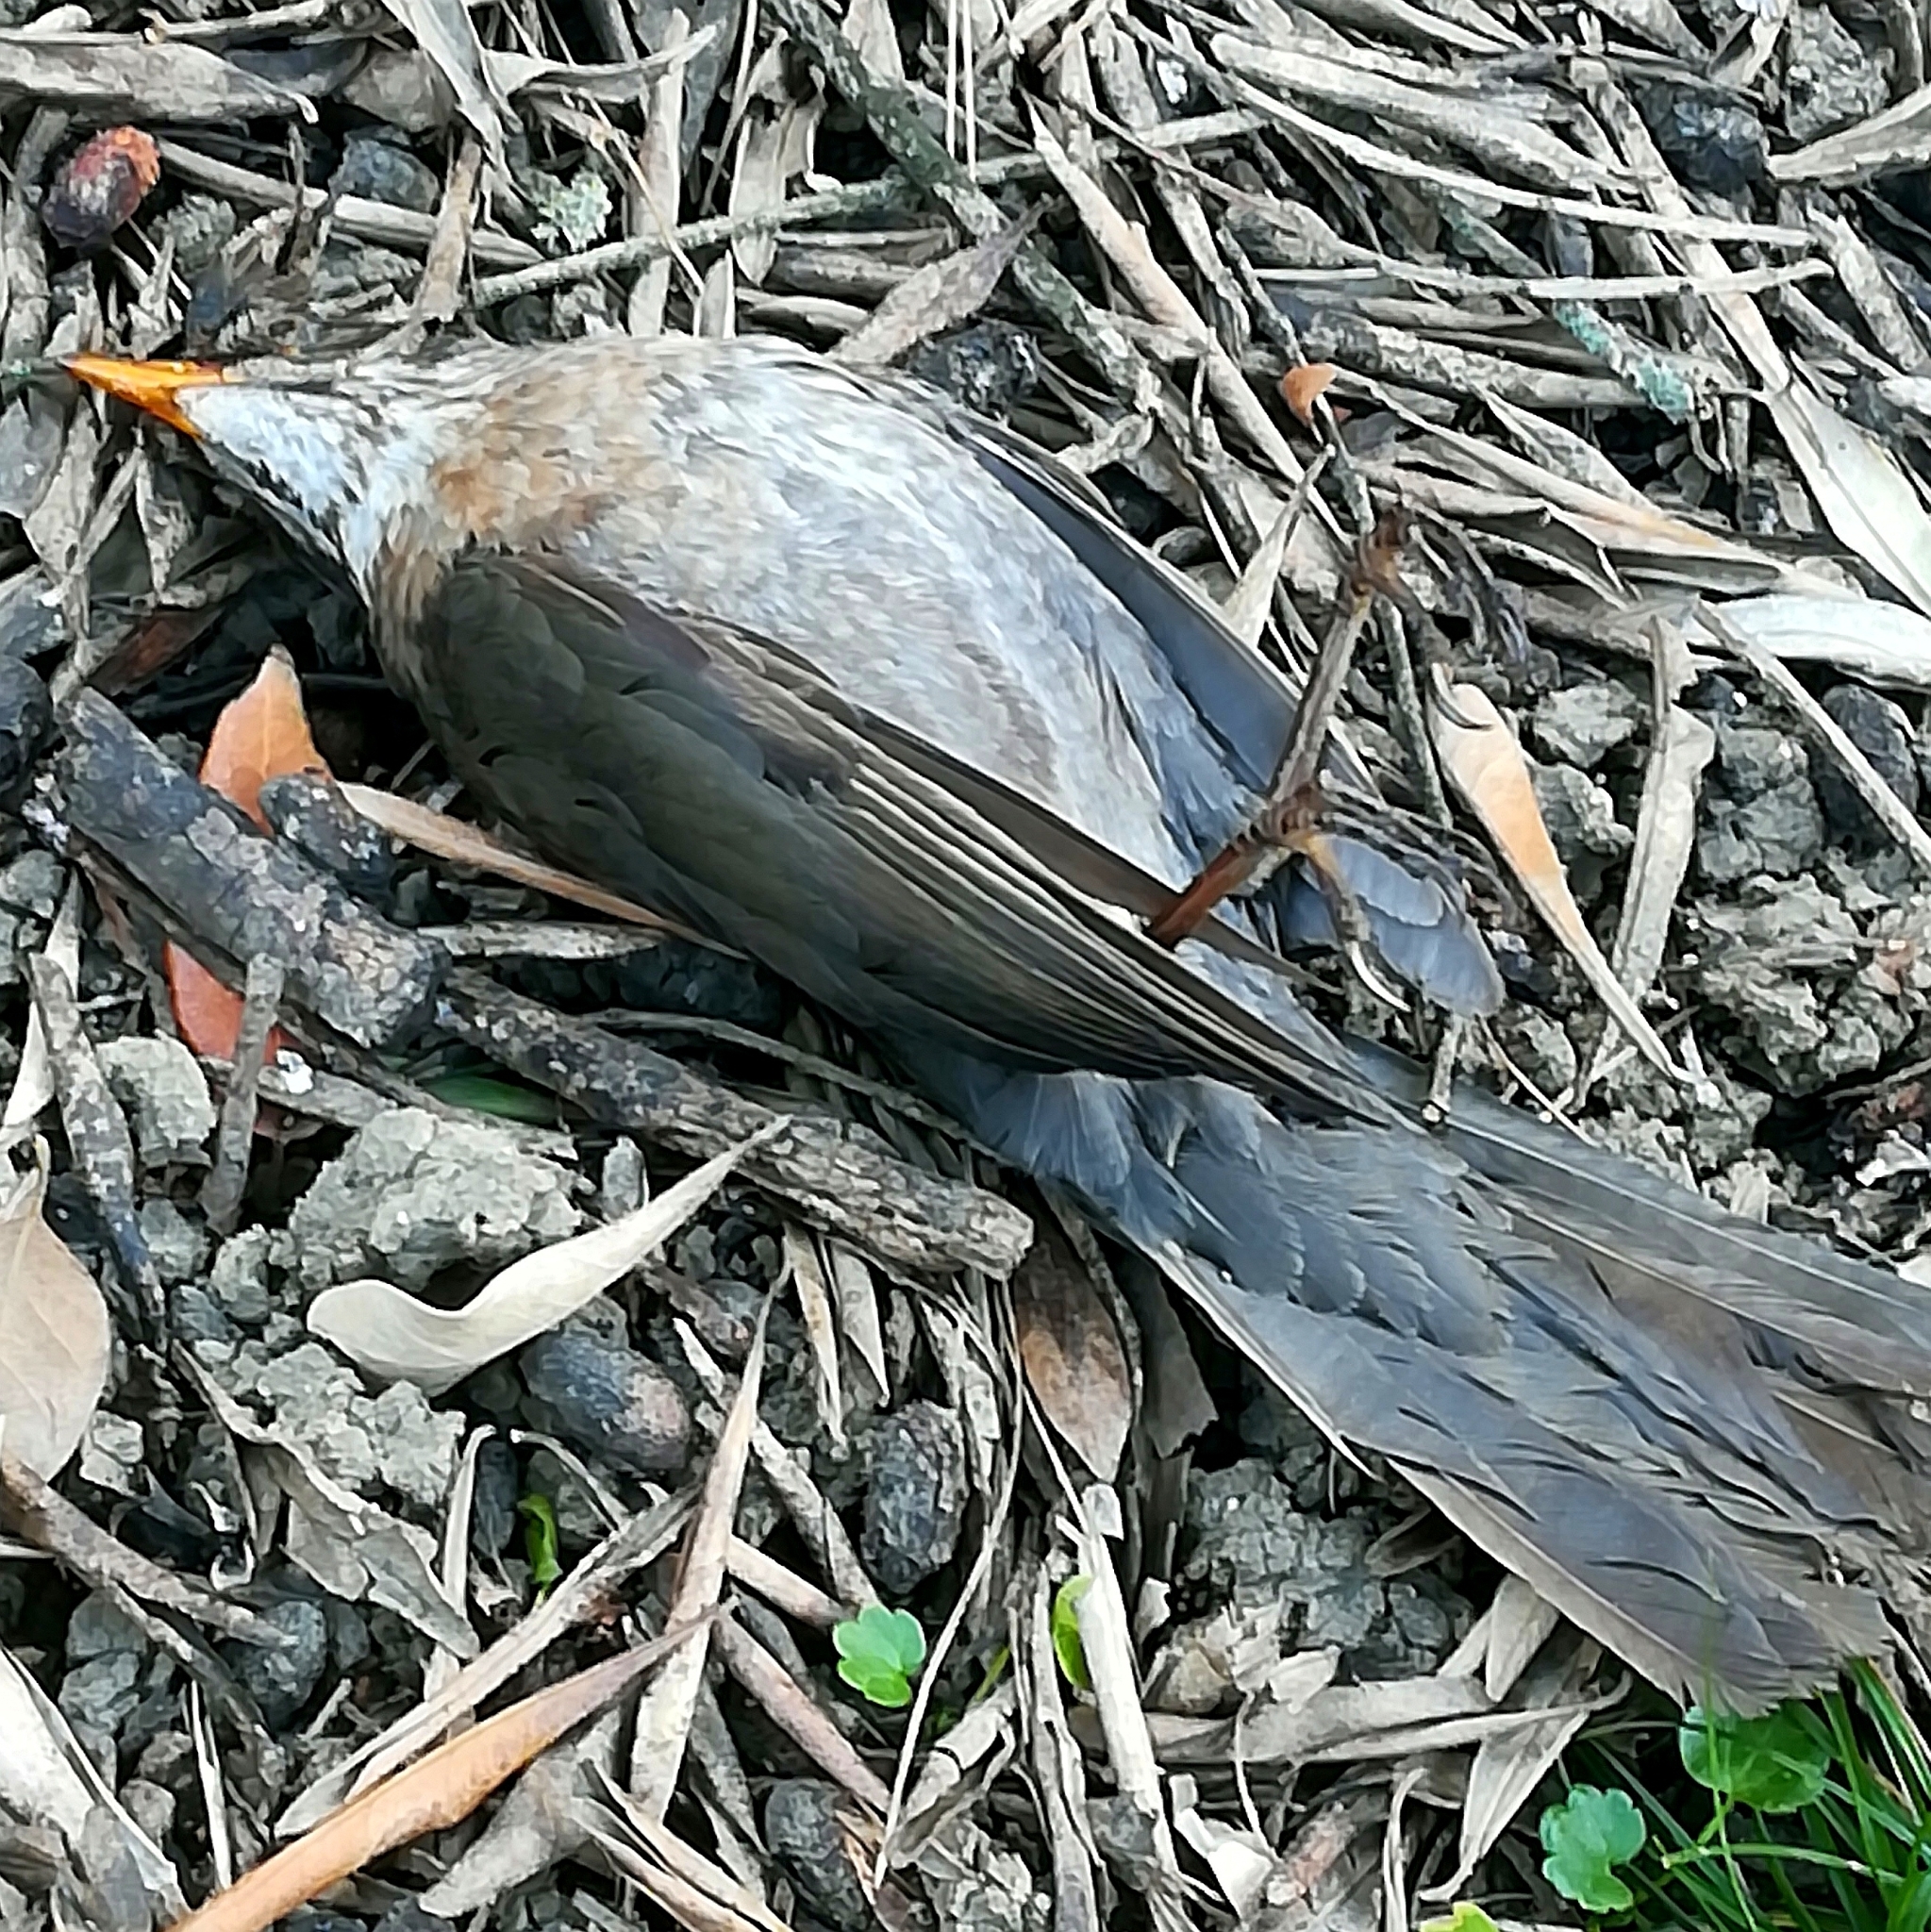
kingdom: Animalia
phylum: Chordata
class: Aves
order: Passeriformes
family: Turdidae
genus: Turdus
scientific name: Turdus merula
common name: Common blackbird
